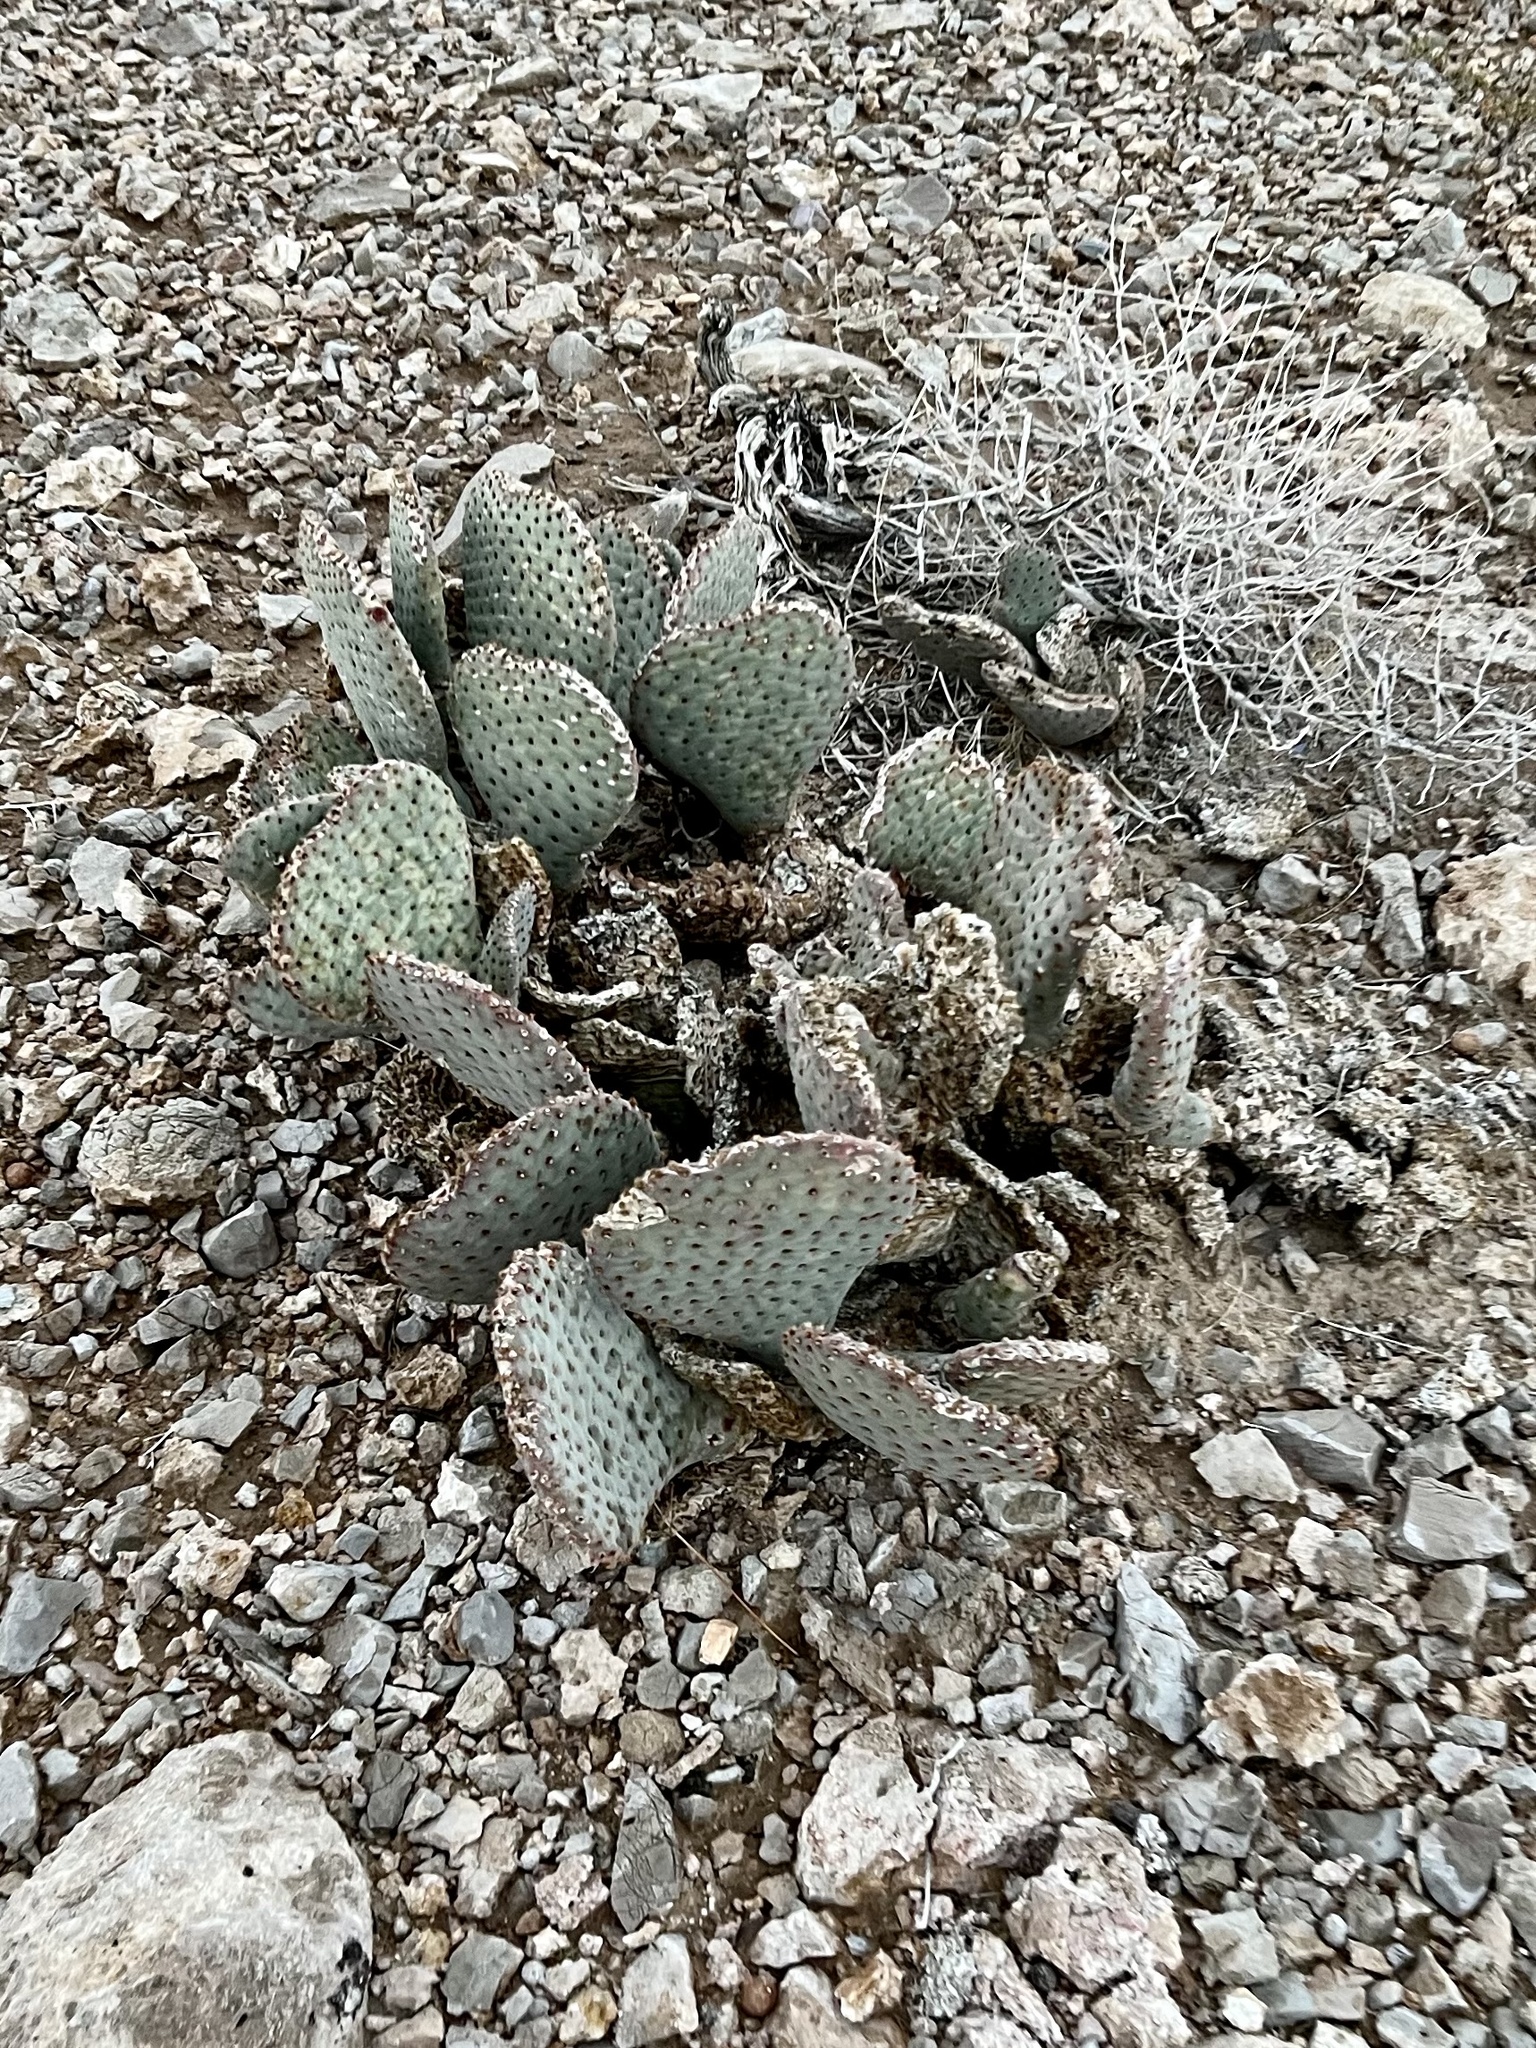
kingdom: Plantae
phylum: Tracheophyta
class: Magnoliopsida
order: Caryophyllales
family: Cactaceae
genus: Opuntia
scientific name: Opuntia basilaris
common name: Beavertail prickly-pear
